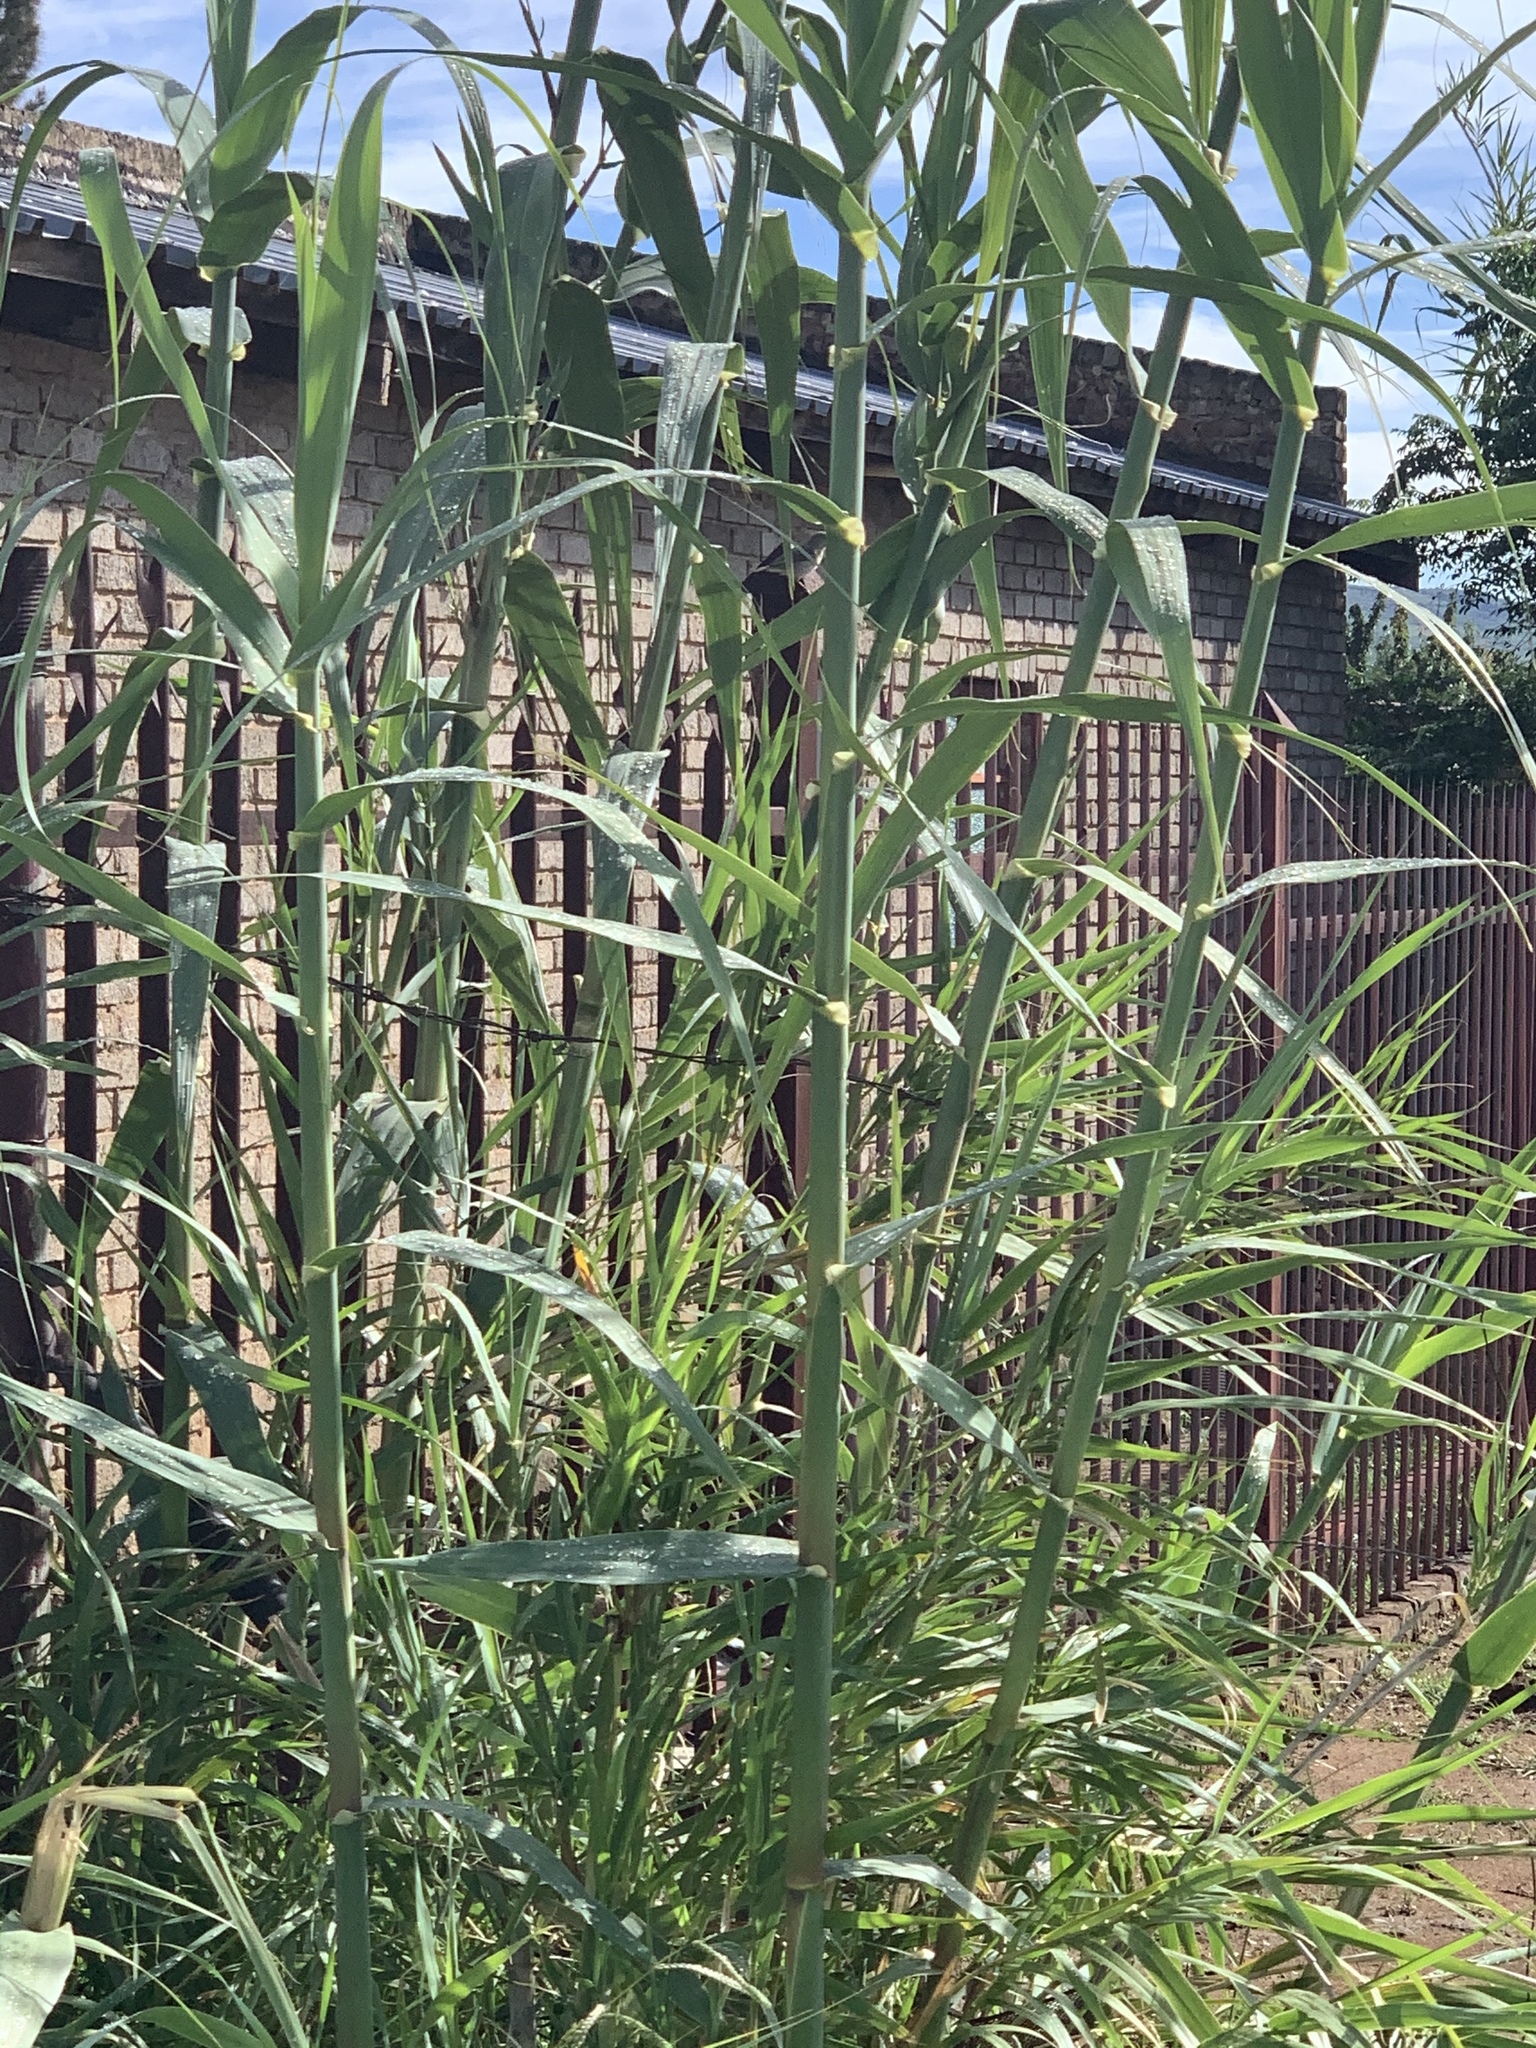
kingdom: Plantae
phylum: Tracheophyta
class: Liliopsida
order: Poales
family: Poaceae
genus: Arundo
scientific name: Arundo donax
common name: Giant reed
